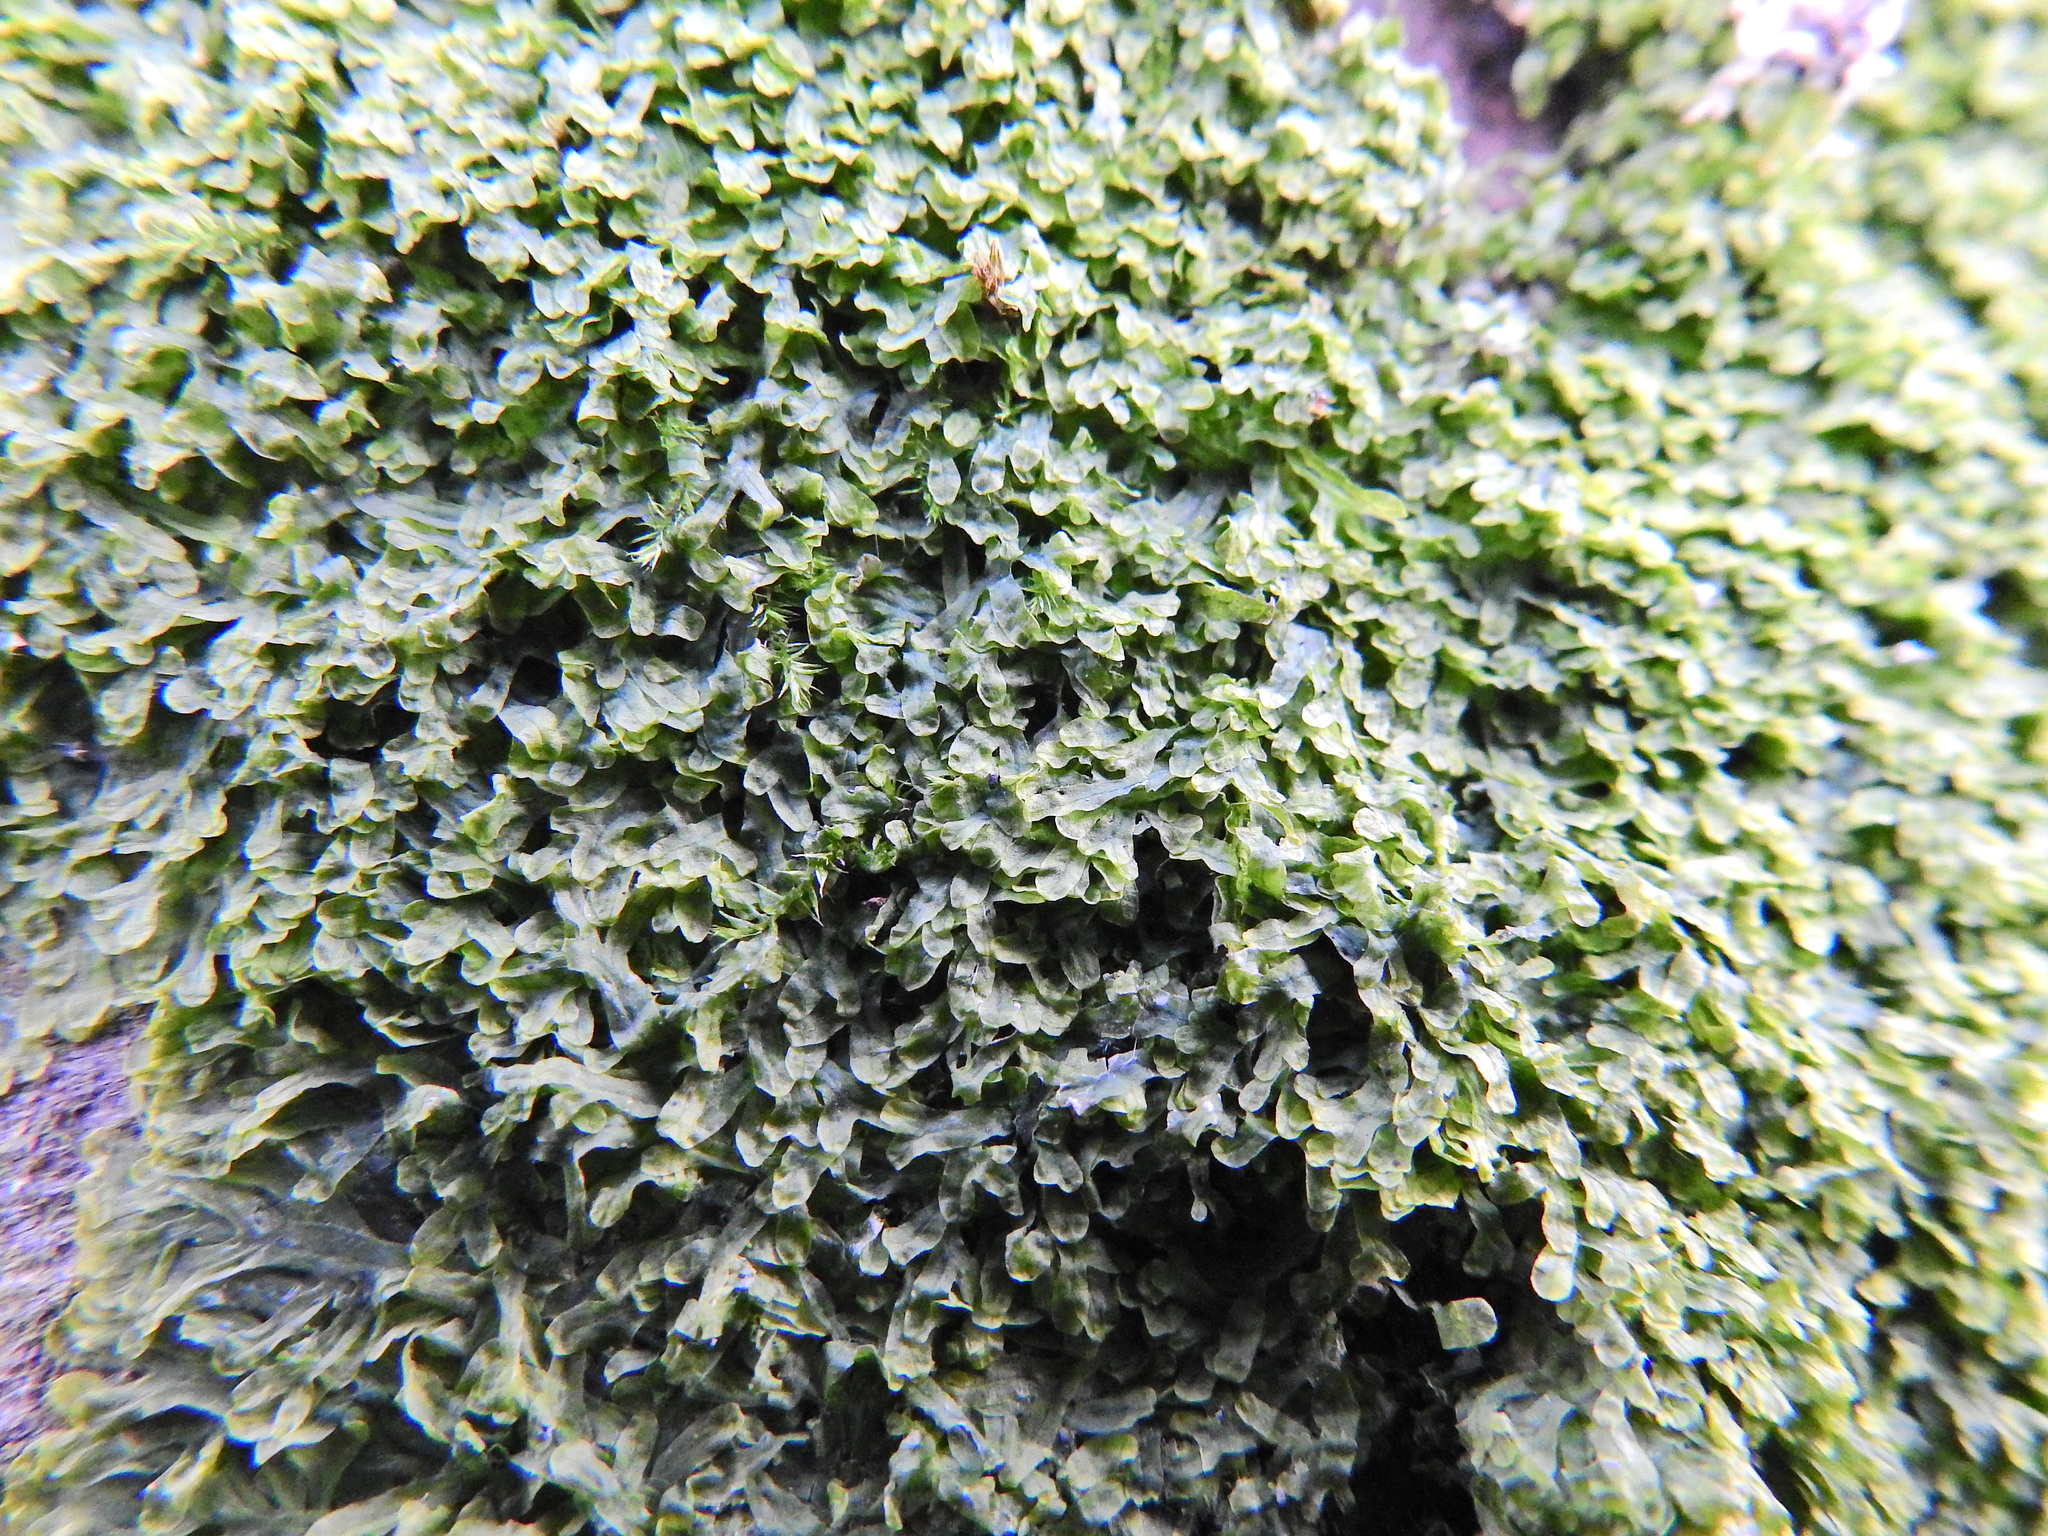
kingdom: Plantae
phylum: Marchantiophyta
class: Jungermanniopsida
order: Metzgeriales
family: Metzgeriaceae
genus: Metzgeria
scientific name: Metzgeria furcata
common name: Forked veilwort
